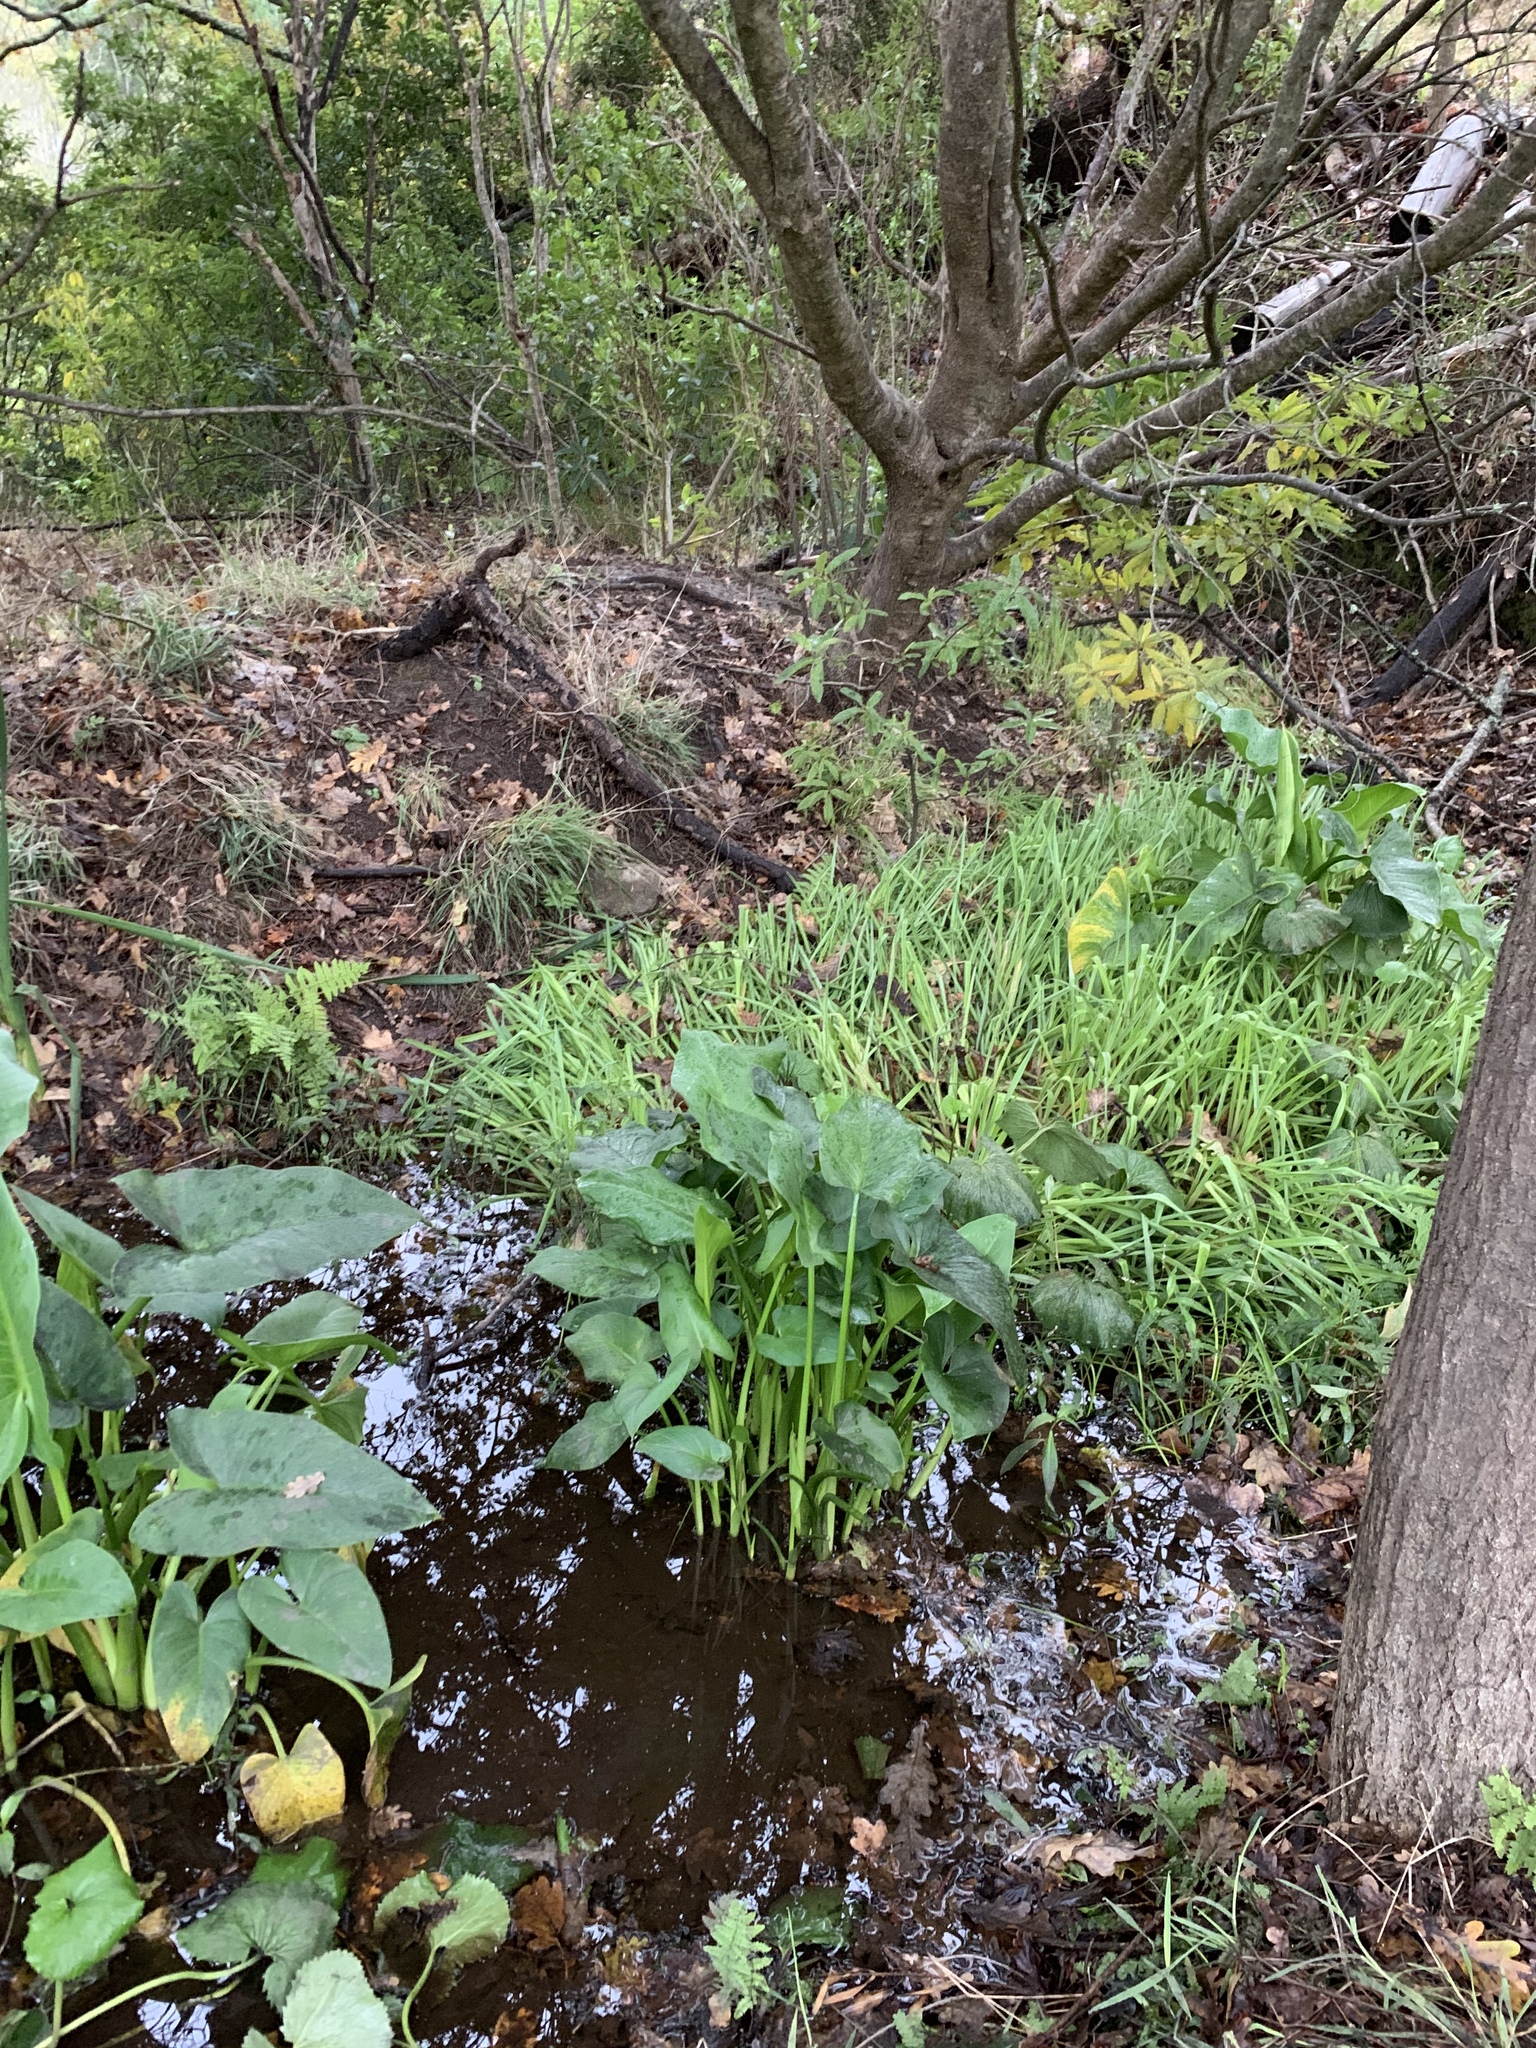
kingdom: Plantae
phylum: Tracheophyta
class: Liliopsida
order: Alismatales
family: Araceae
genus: Zantedeschia
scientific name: Zantedeschia aethiopica
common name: Altar-lily
